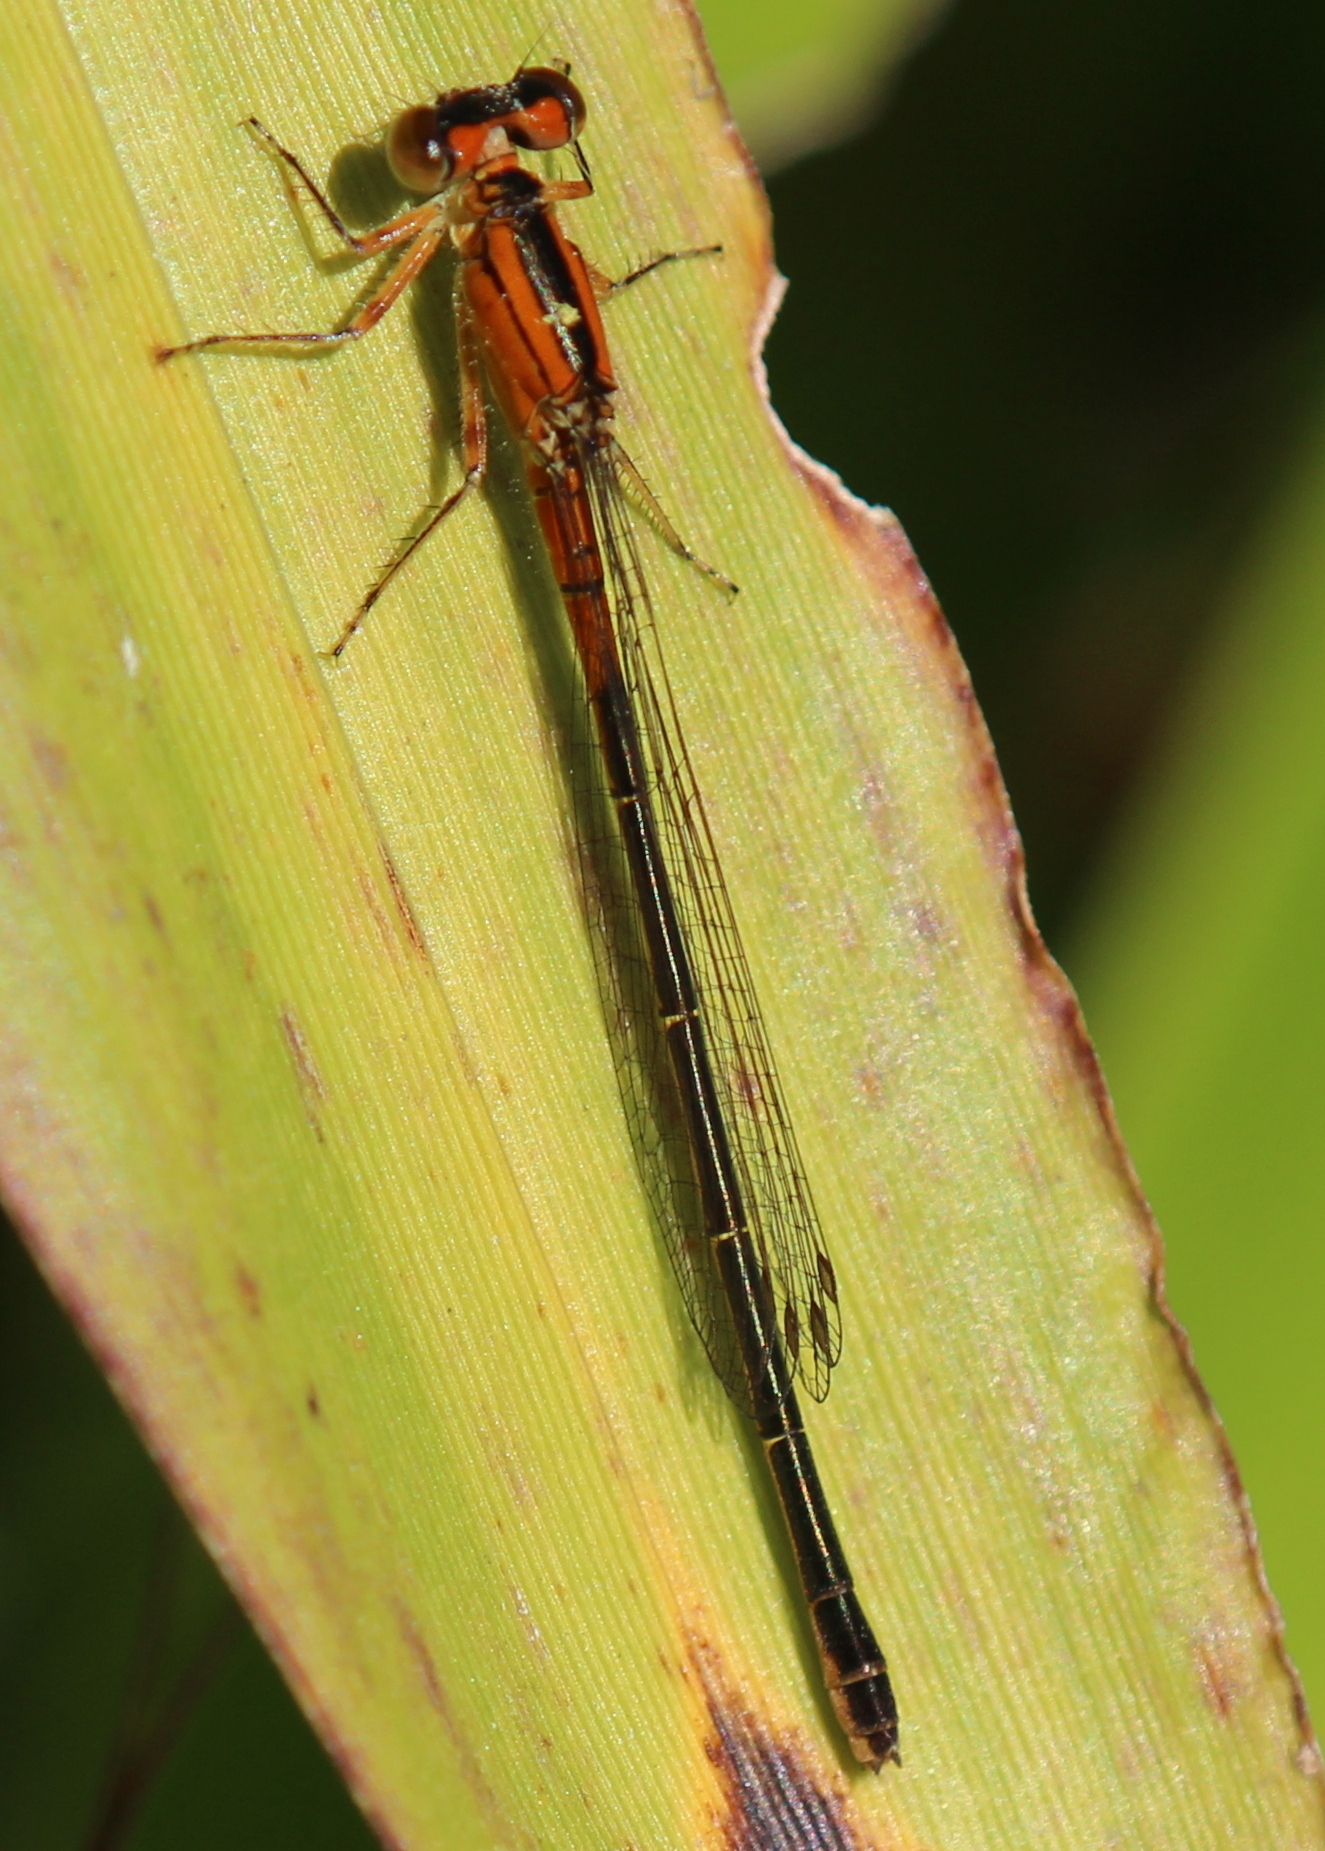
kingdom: Animalia
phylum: Arthropoda
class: Insecta
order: Odonata
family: Coenagrionidae
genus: Ischnura
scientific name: Ischnura verticalis
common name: Eastern forktail
